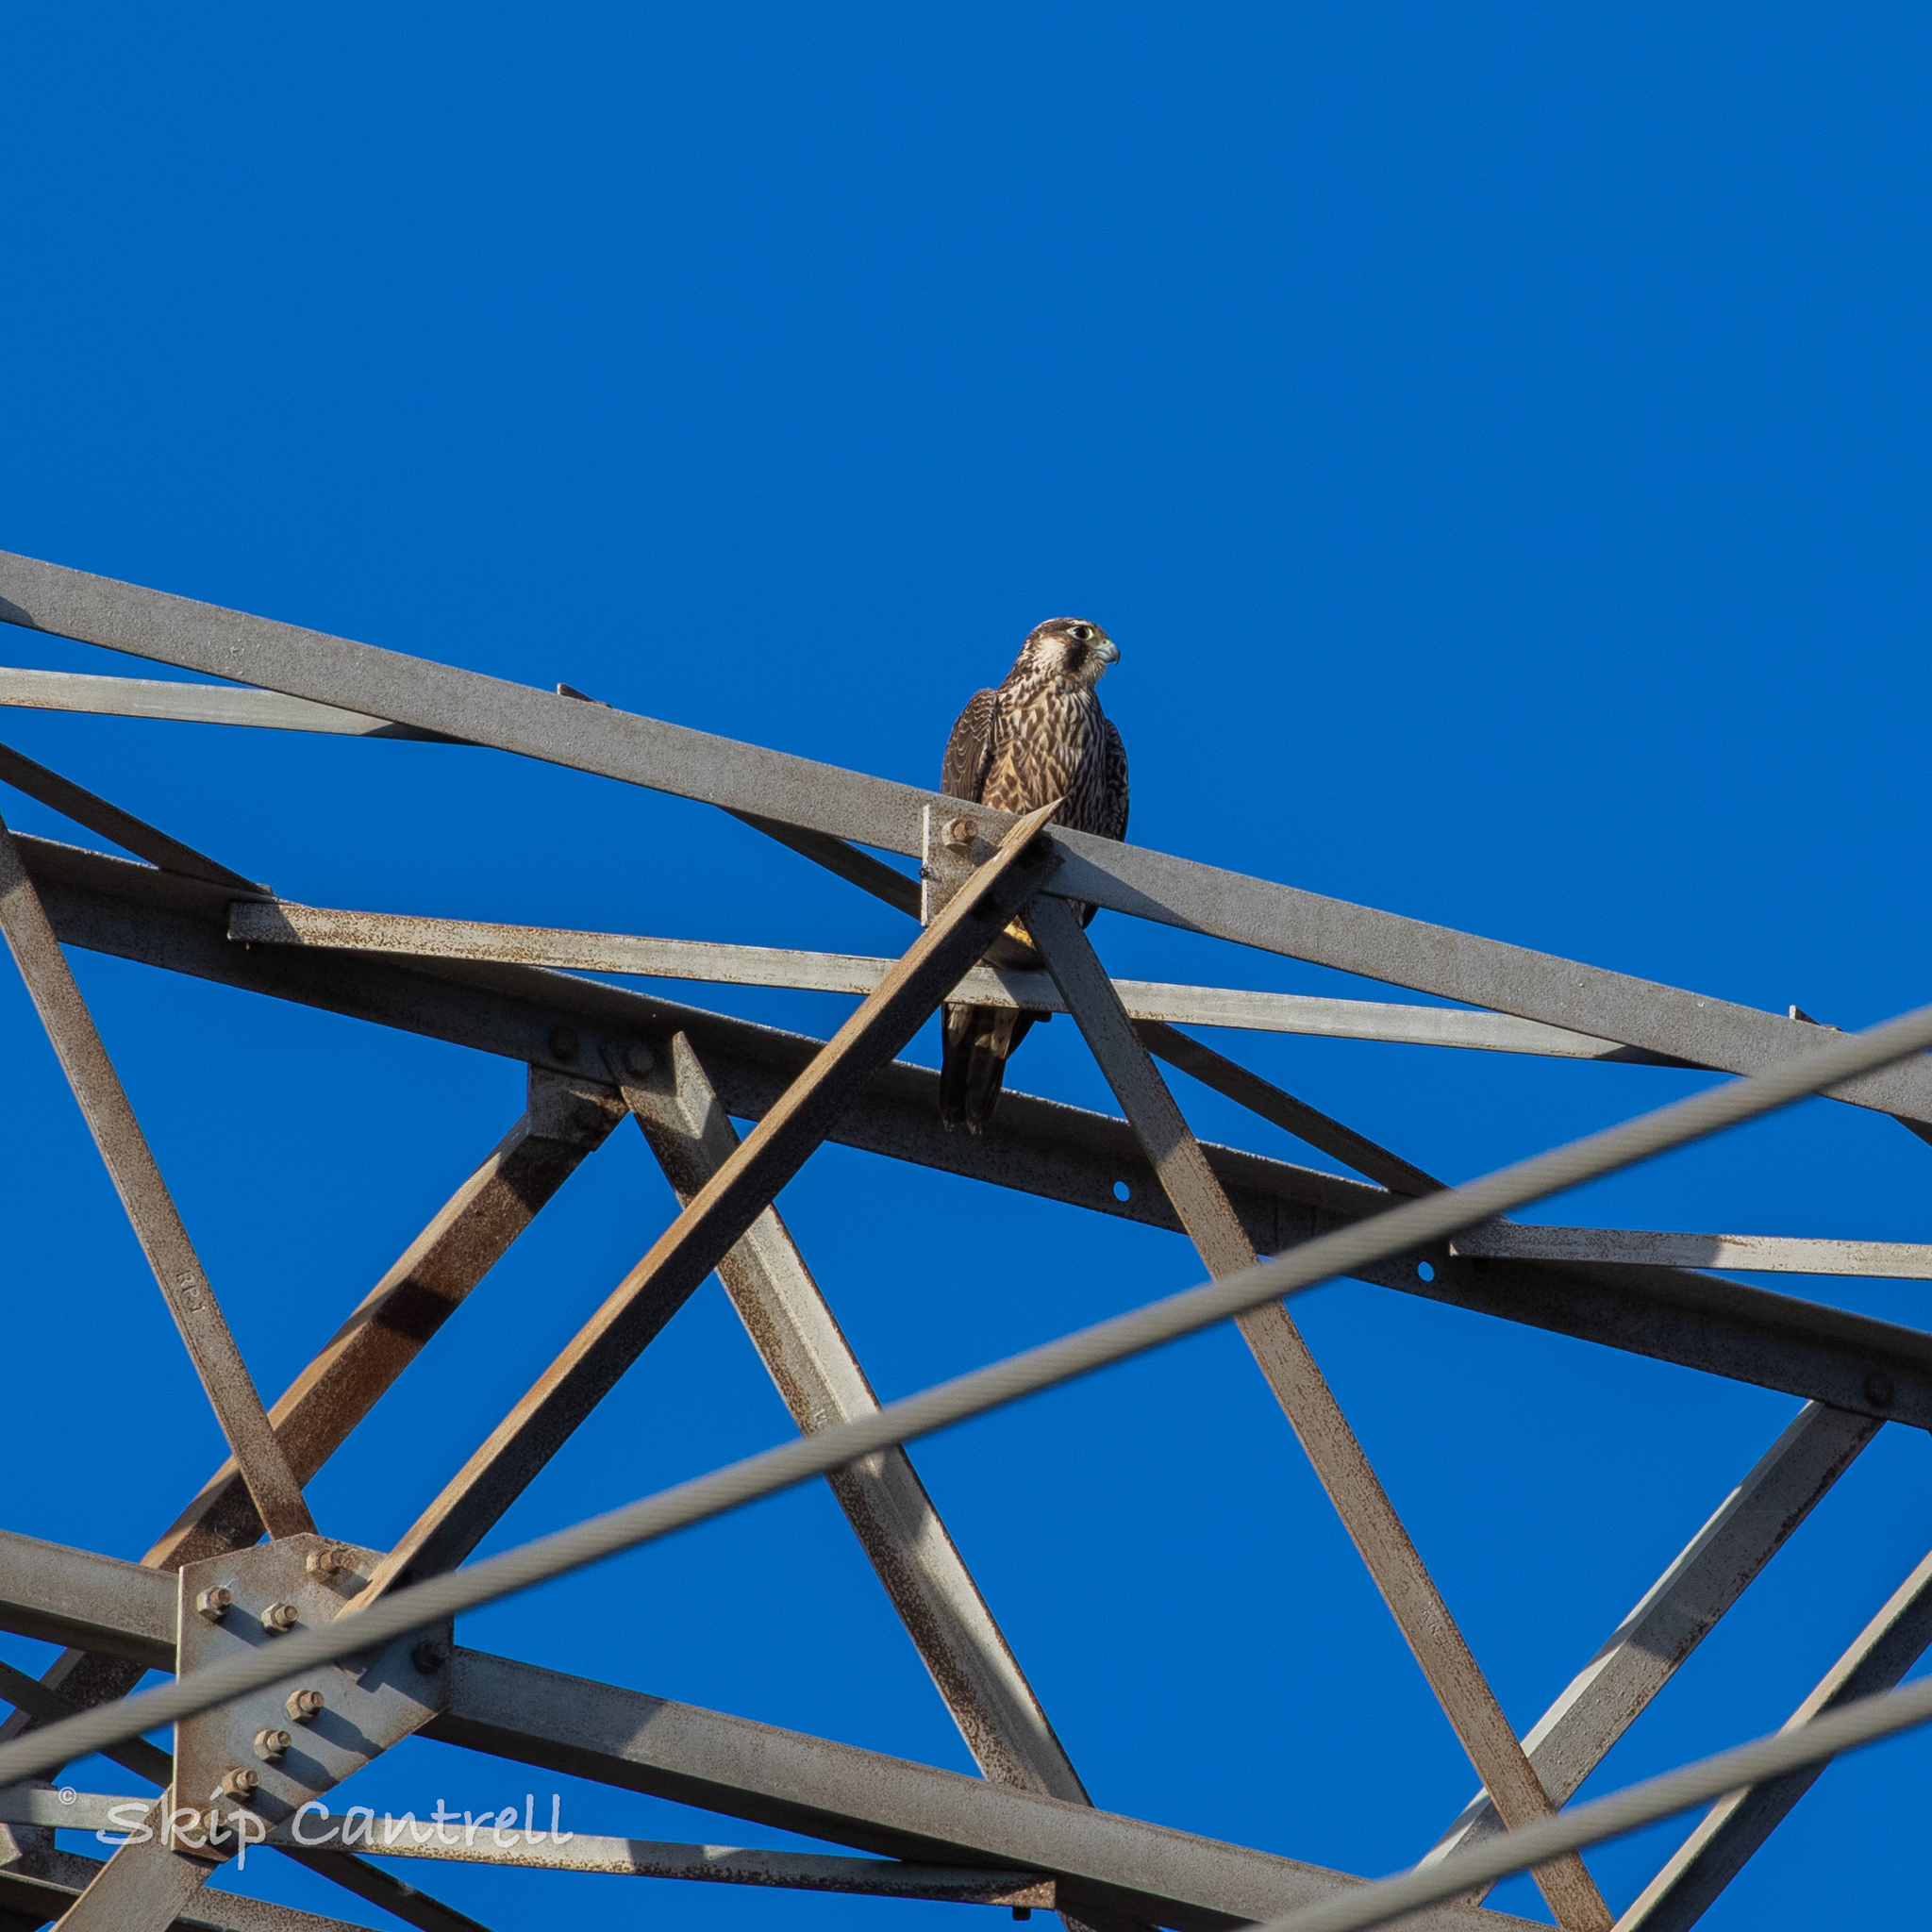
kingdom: Animalia
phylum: Chordata
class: Aves
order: Falconiformes
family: Falconidae
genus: Falco
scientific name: Falco peregrinus
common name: Peregrine falcon
